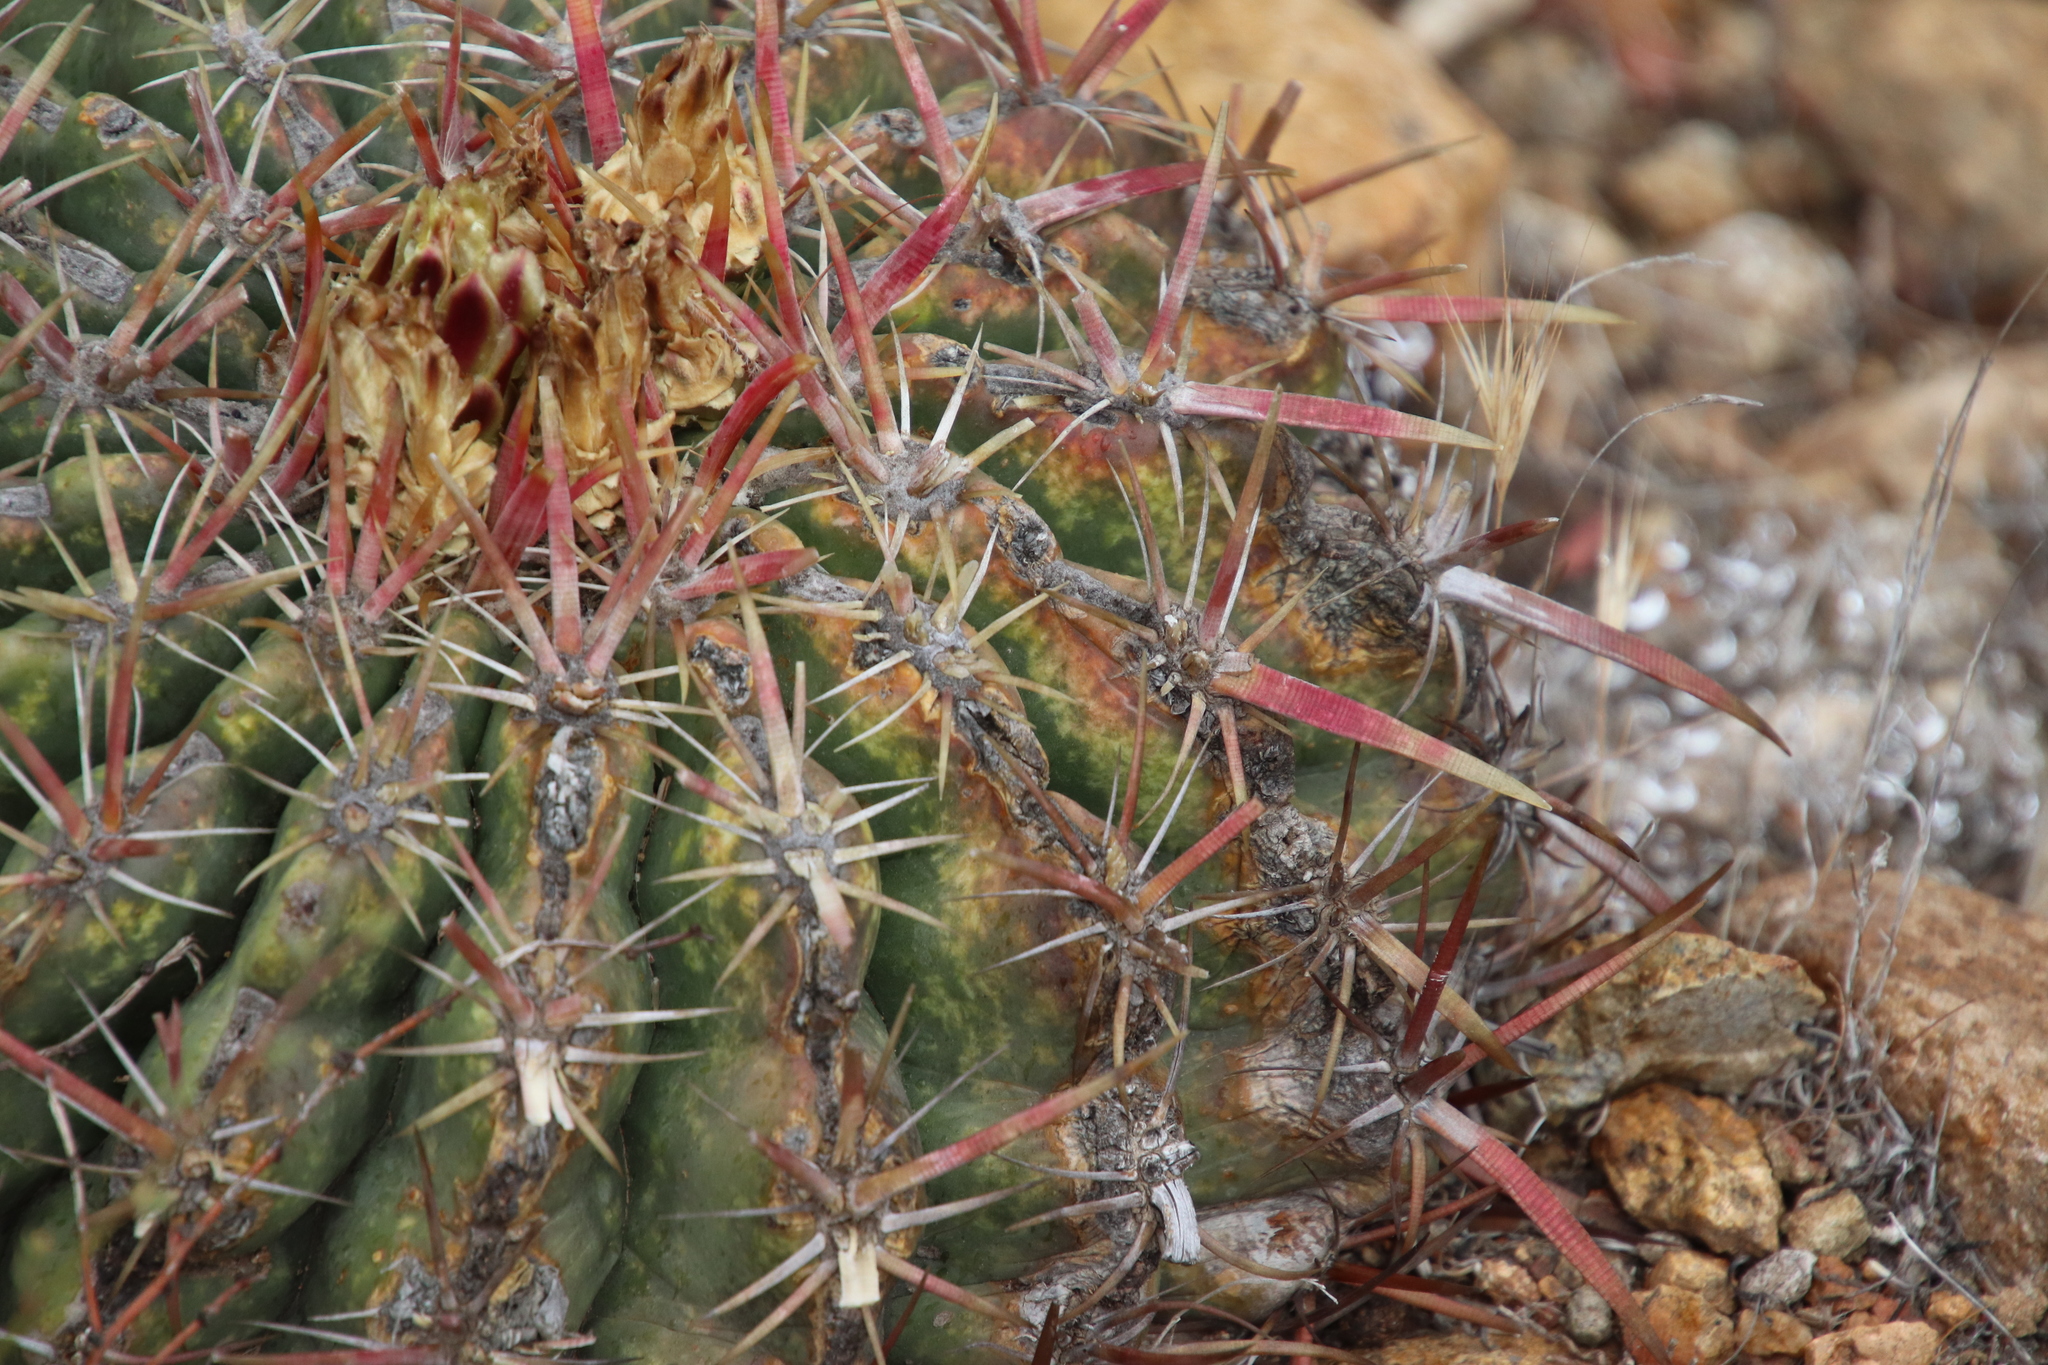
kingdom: Plantae
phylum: Tracheophyta
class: Magnoliopsida
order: Caryophyllales
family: Cactaceae
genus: Ferocactus
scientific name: Ferocactus viridescens
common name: San diego barrel cactus
